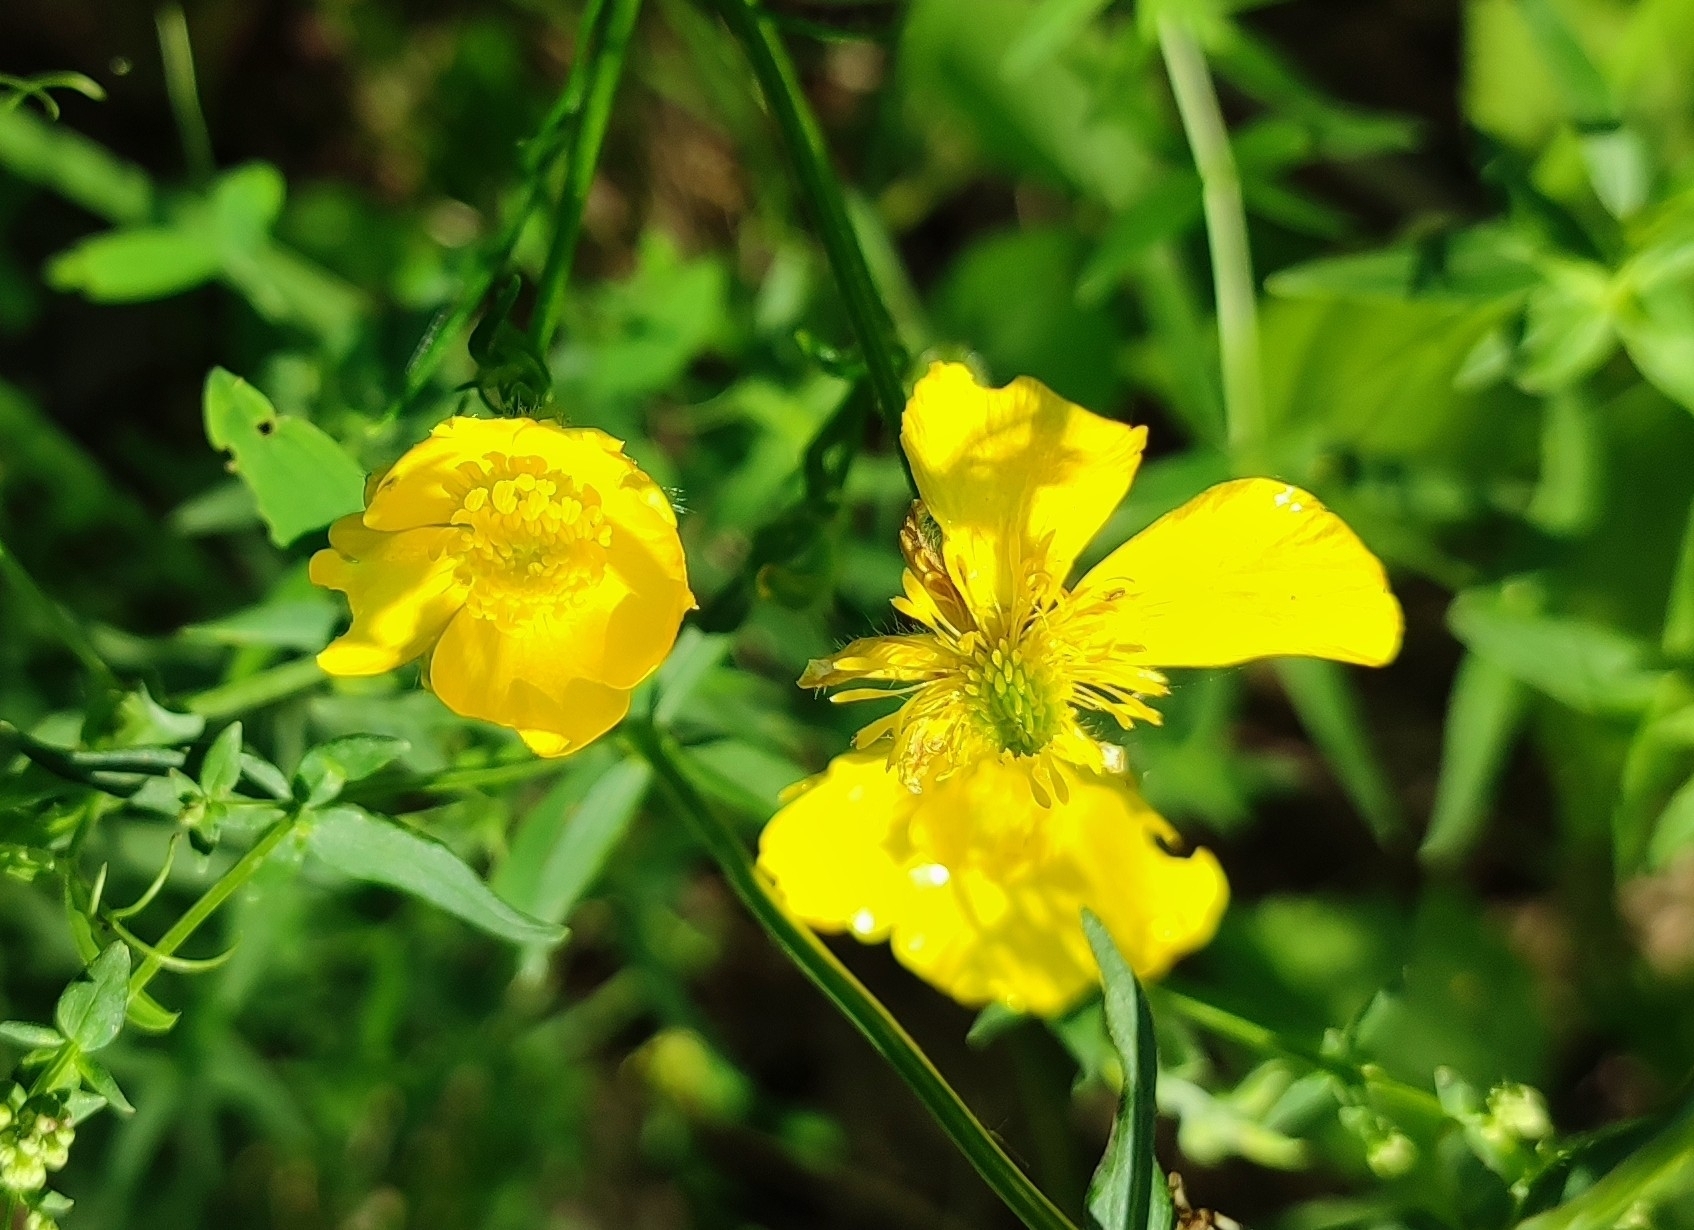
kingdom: Plantae
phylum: Tracheophyta
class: Magnoliopsida
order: Ranunculales
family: Ranunculaceae
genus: Ranunculus
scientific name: Ranunculus polyanthemos
